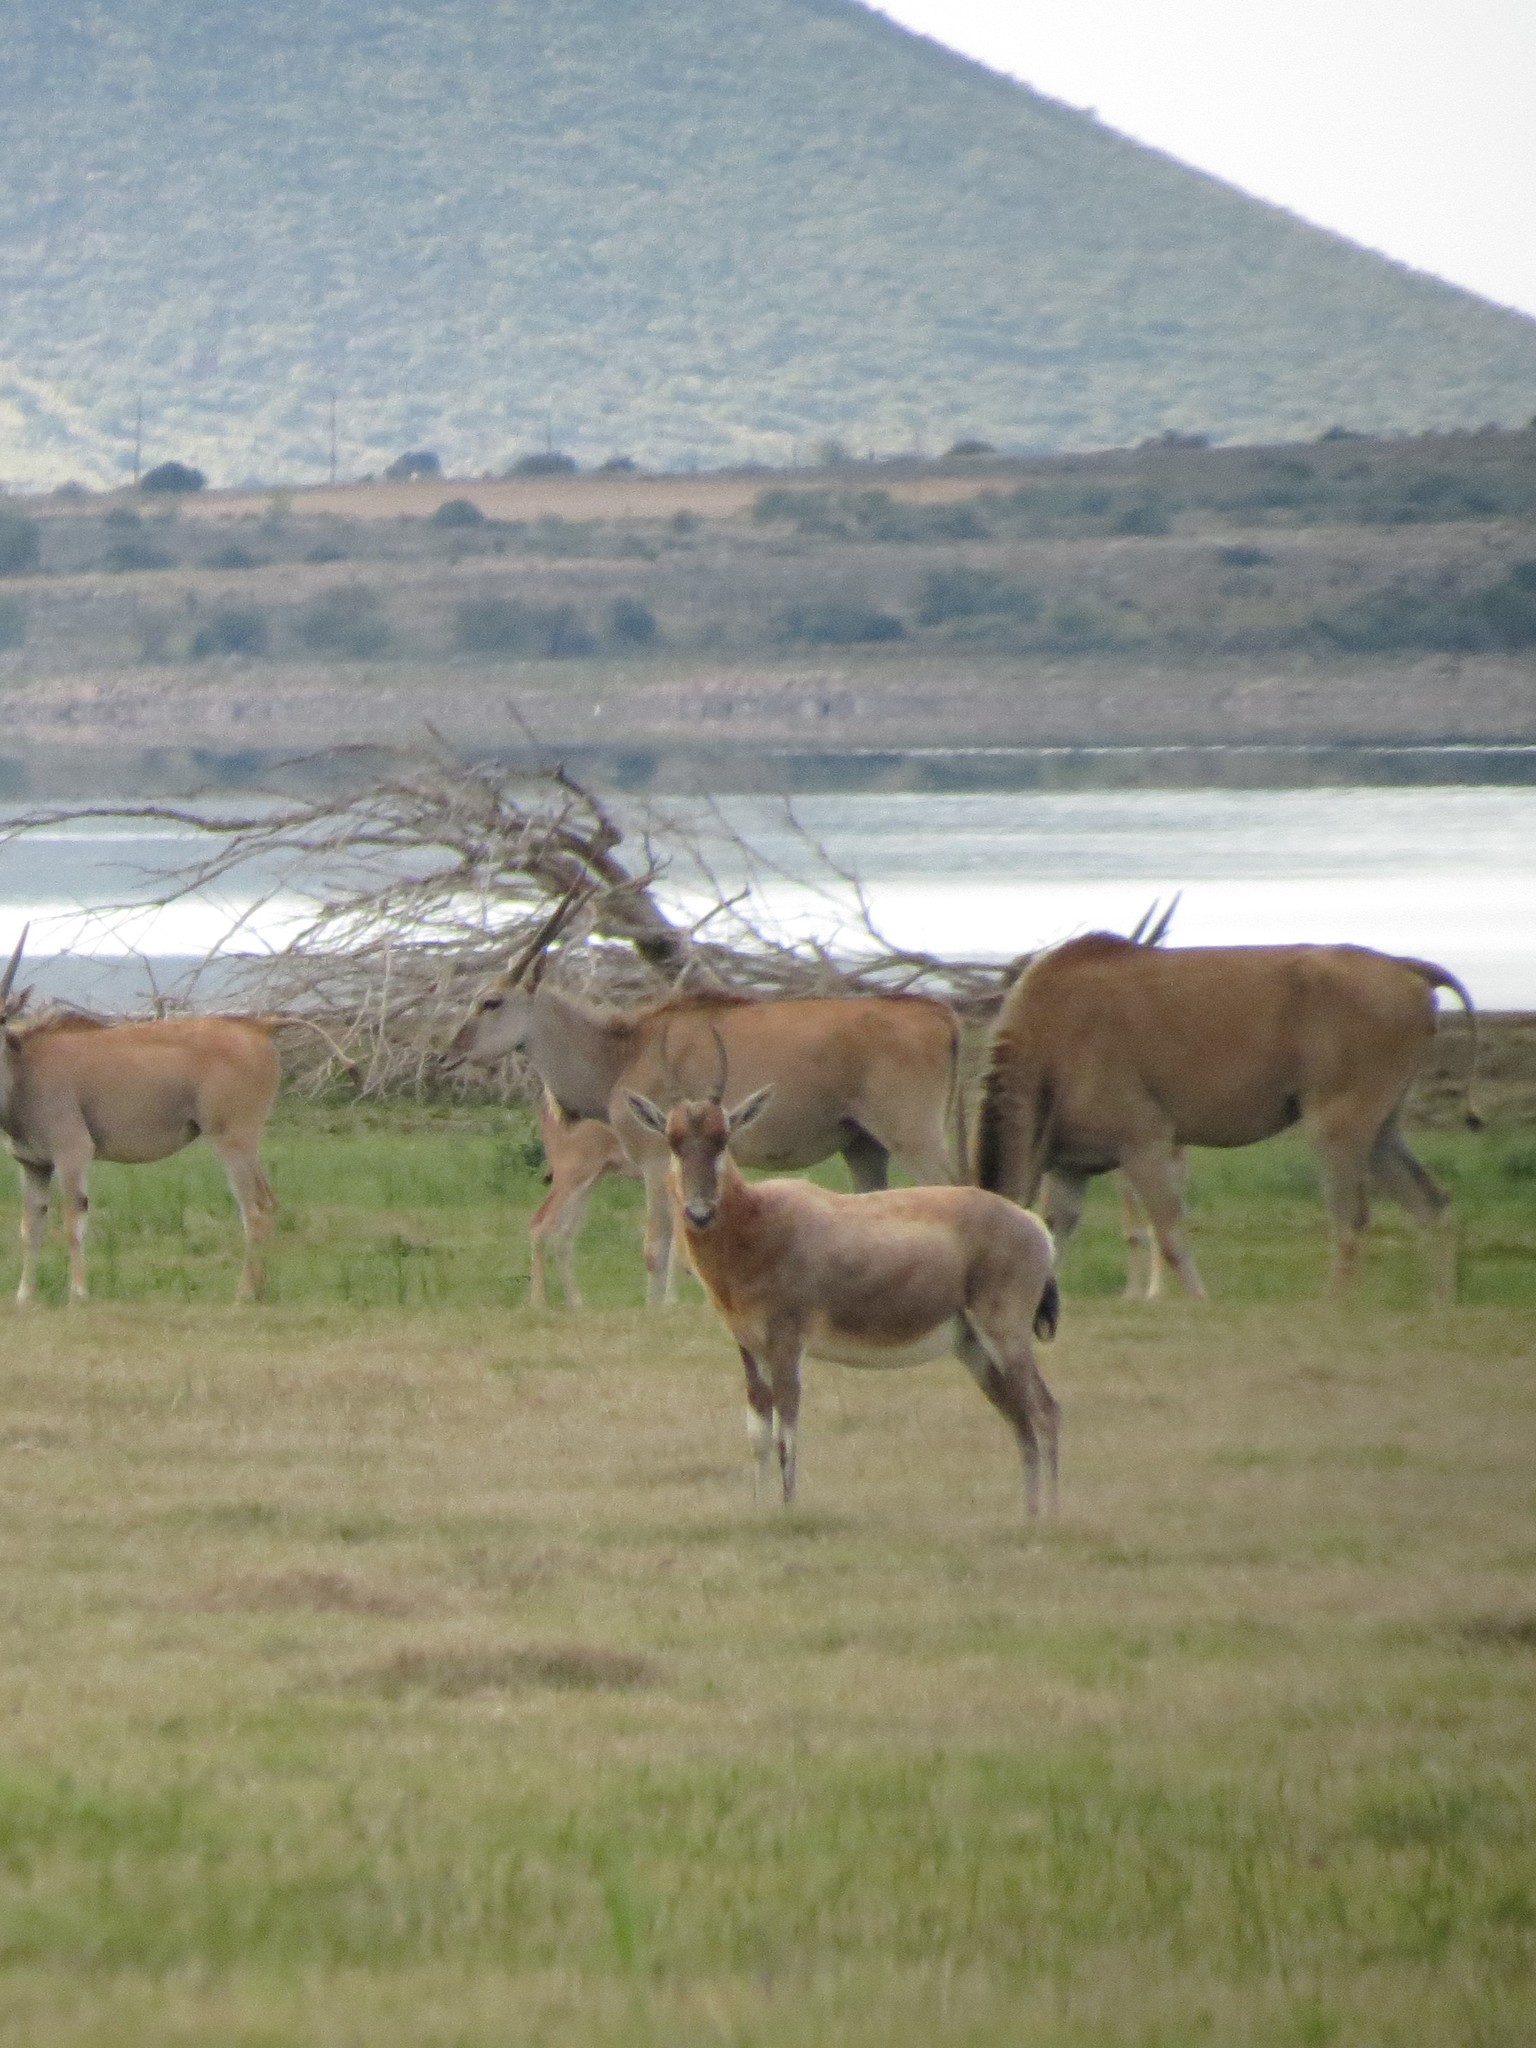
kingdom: Animalia
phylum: Chordata
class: Mammalia
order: Artiodactyla
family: Bovidae
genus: Damaliscus
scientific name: Damaliscus pygargus
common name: Bontebok
